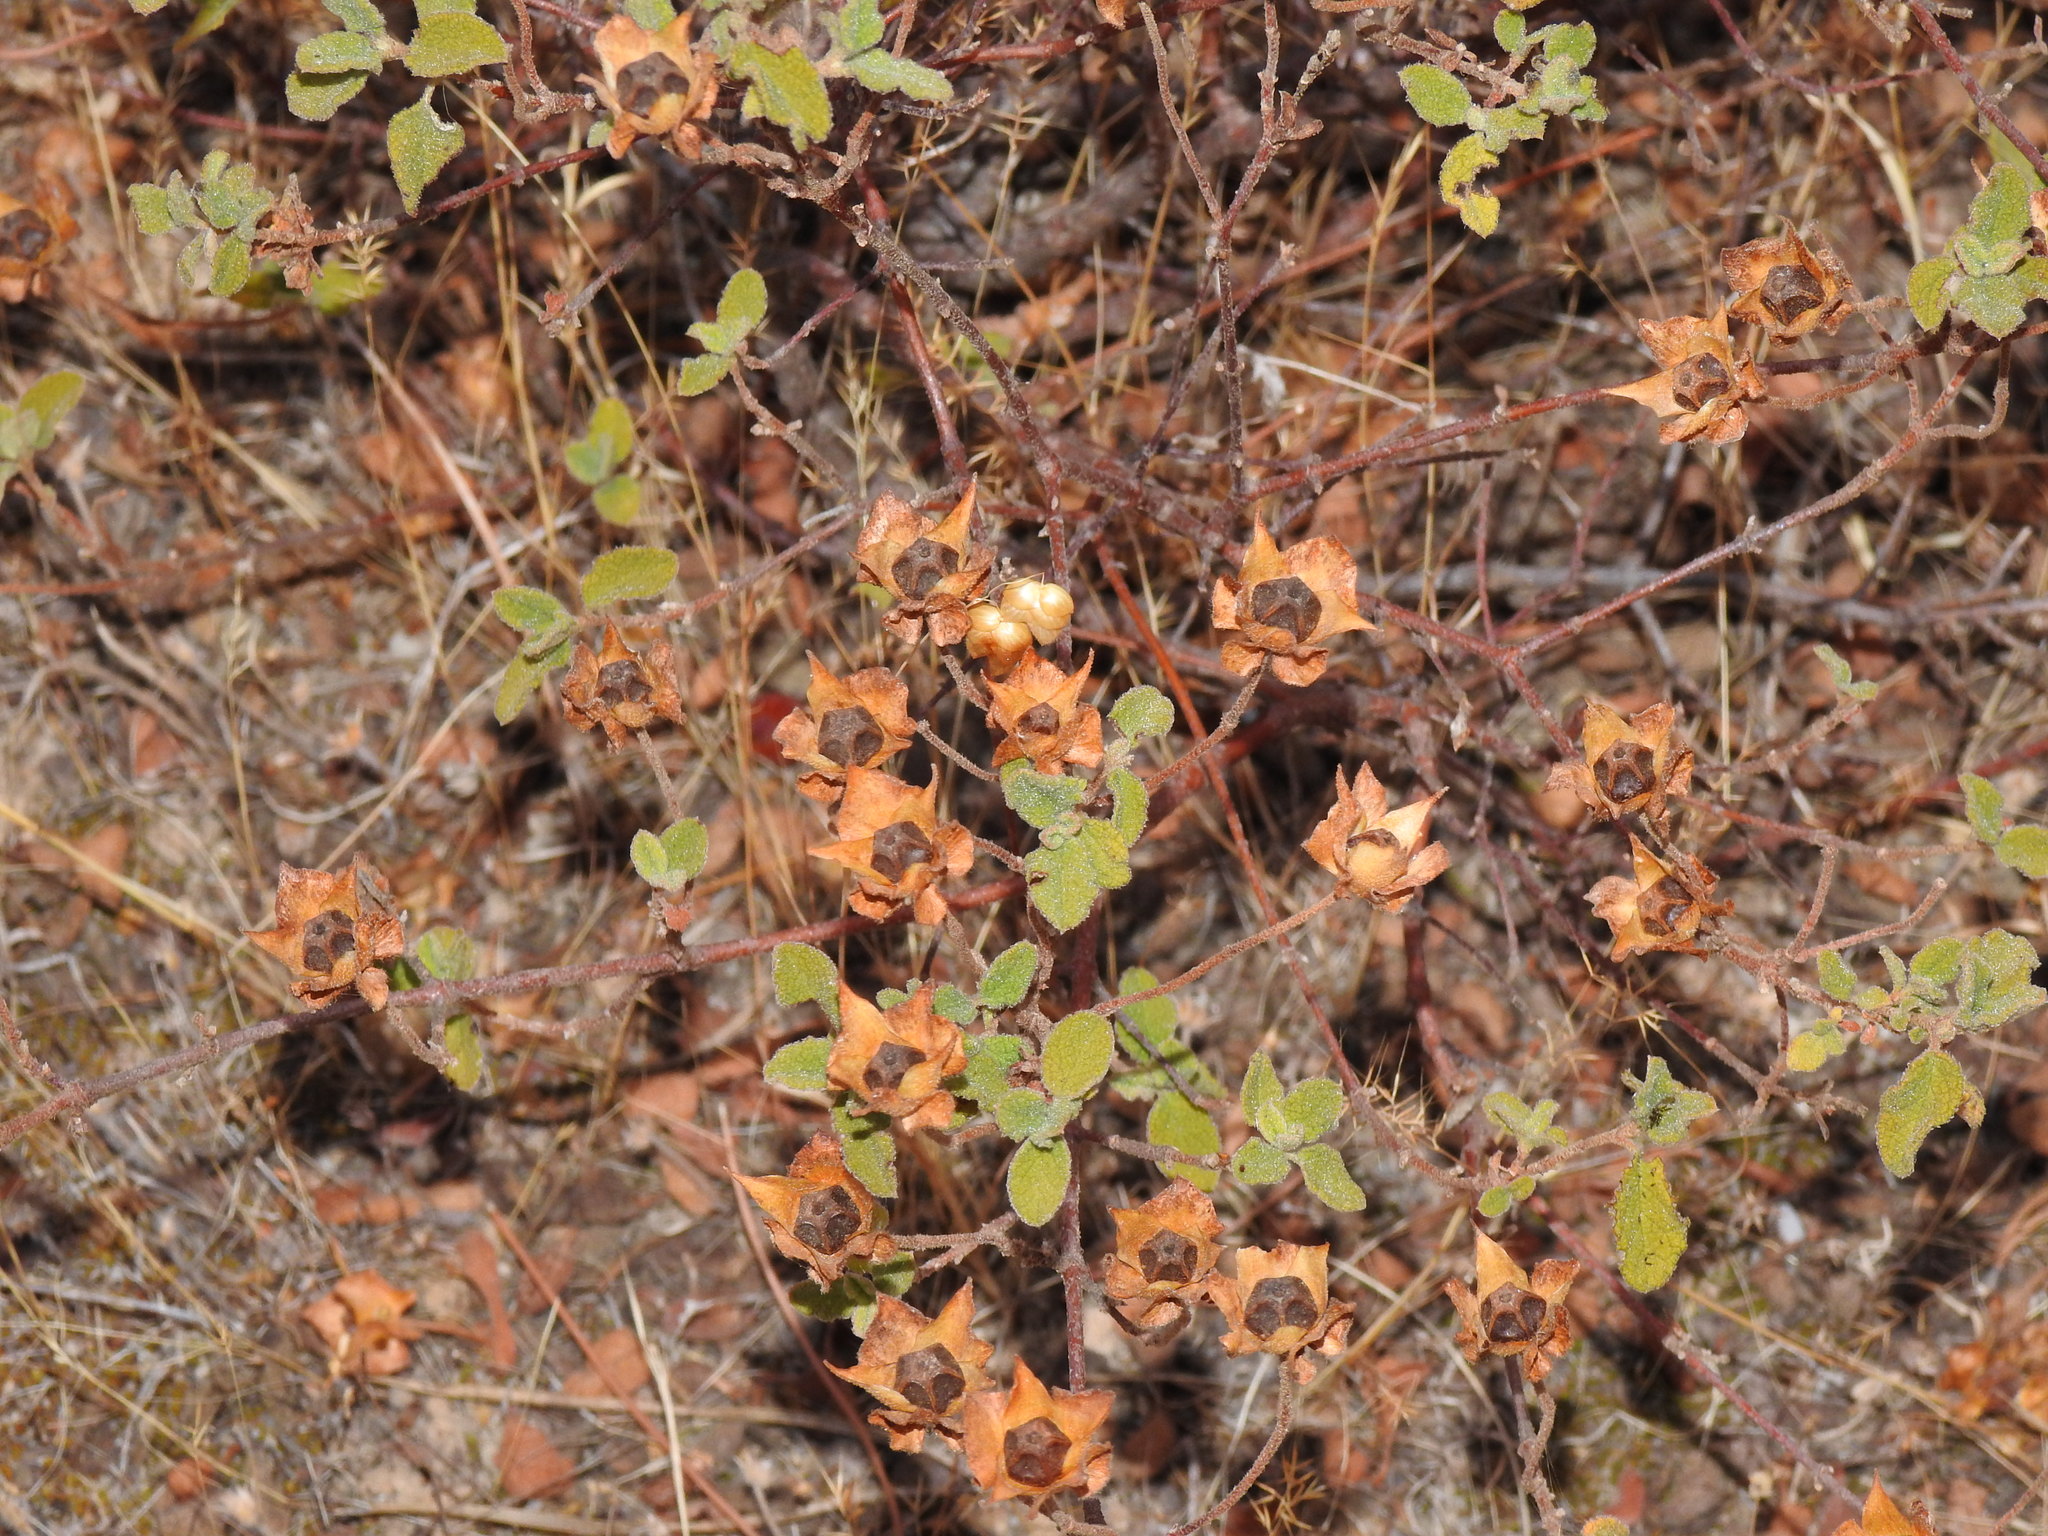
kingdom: Plantae
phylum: Tracheophyta
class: Magnoliopsida
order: Malvales
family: Cistaceae
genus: Cistus
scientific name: Cistus salviifolius
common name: Salvia cistus
